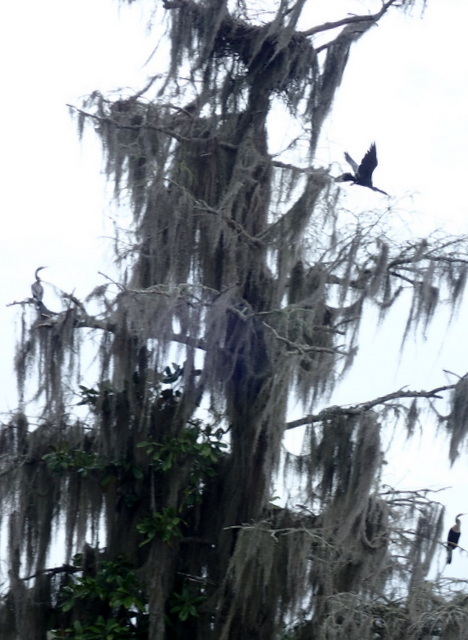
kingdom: Animalia
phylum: Chordata
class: Aves
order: Suliformes
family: Anhingidae
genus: Anhinga
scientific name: Anhinga anhinga
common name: Anhinga
